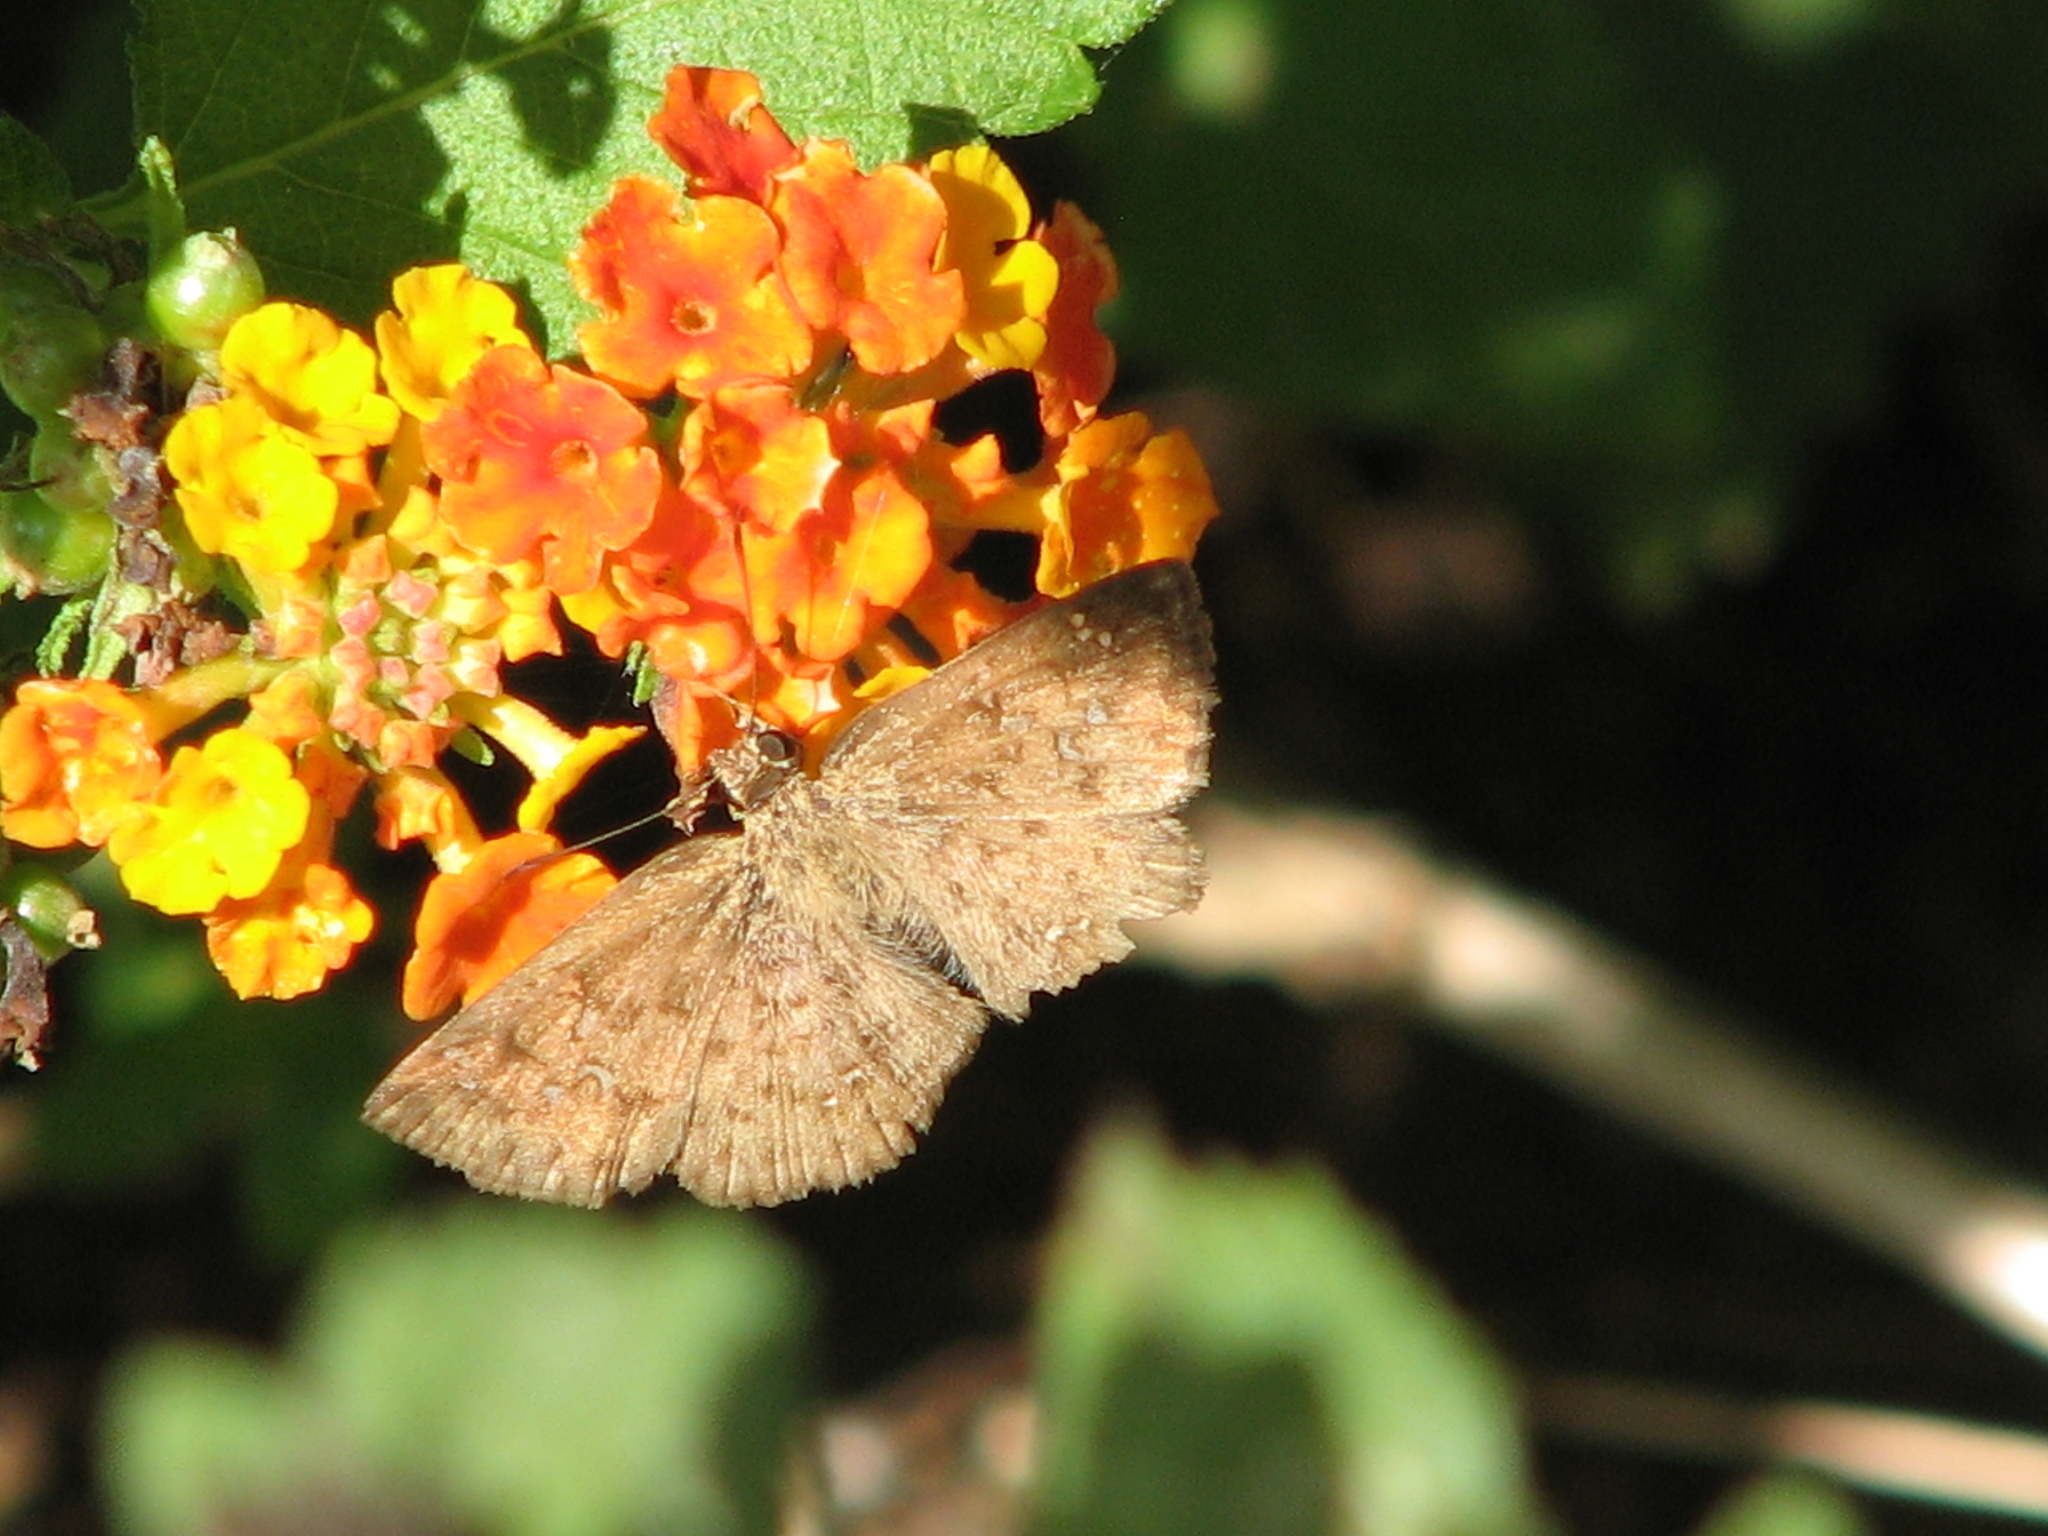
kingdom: Animalia
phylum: Arthropoda
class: Insecta
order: Lepidoptera
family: Hesperiidae
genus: Canesia
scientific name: Canesia canescens
